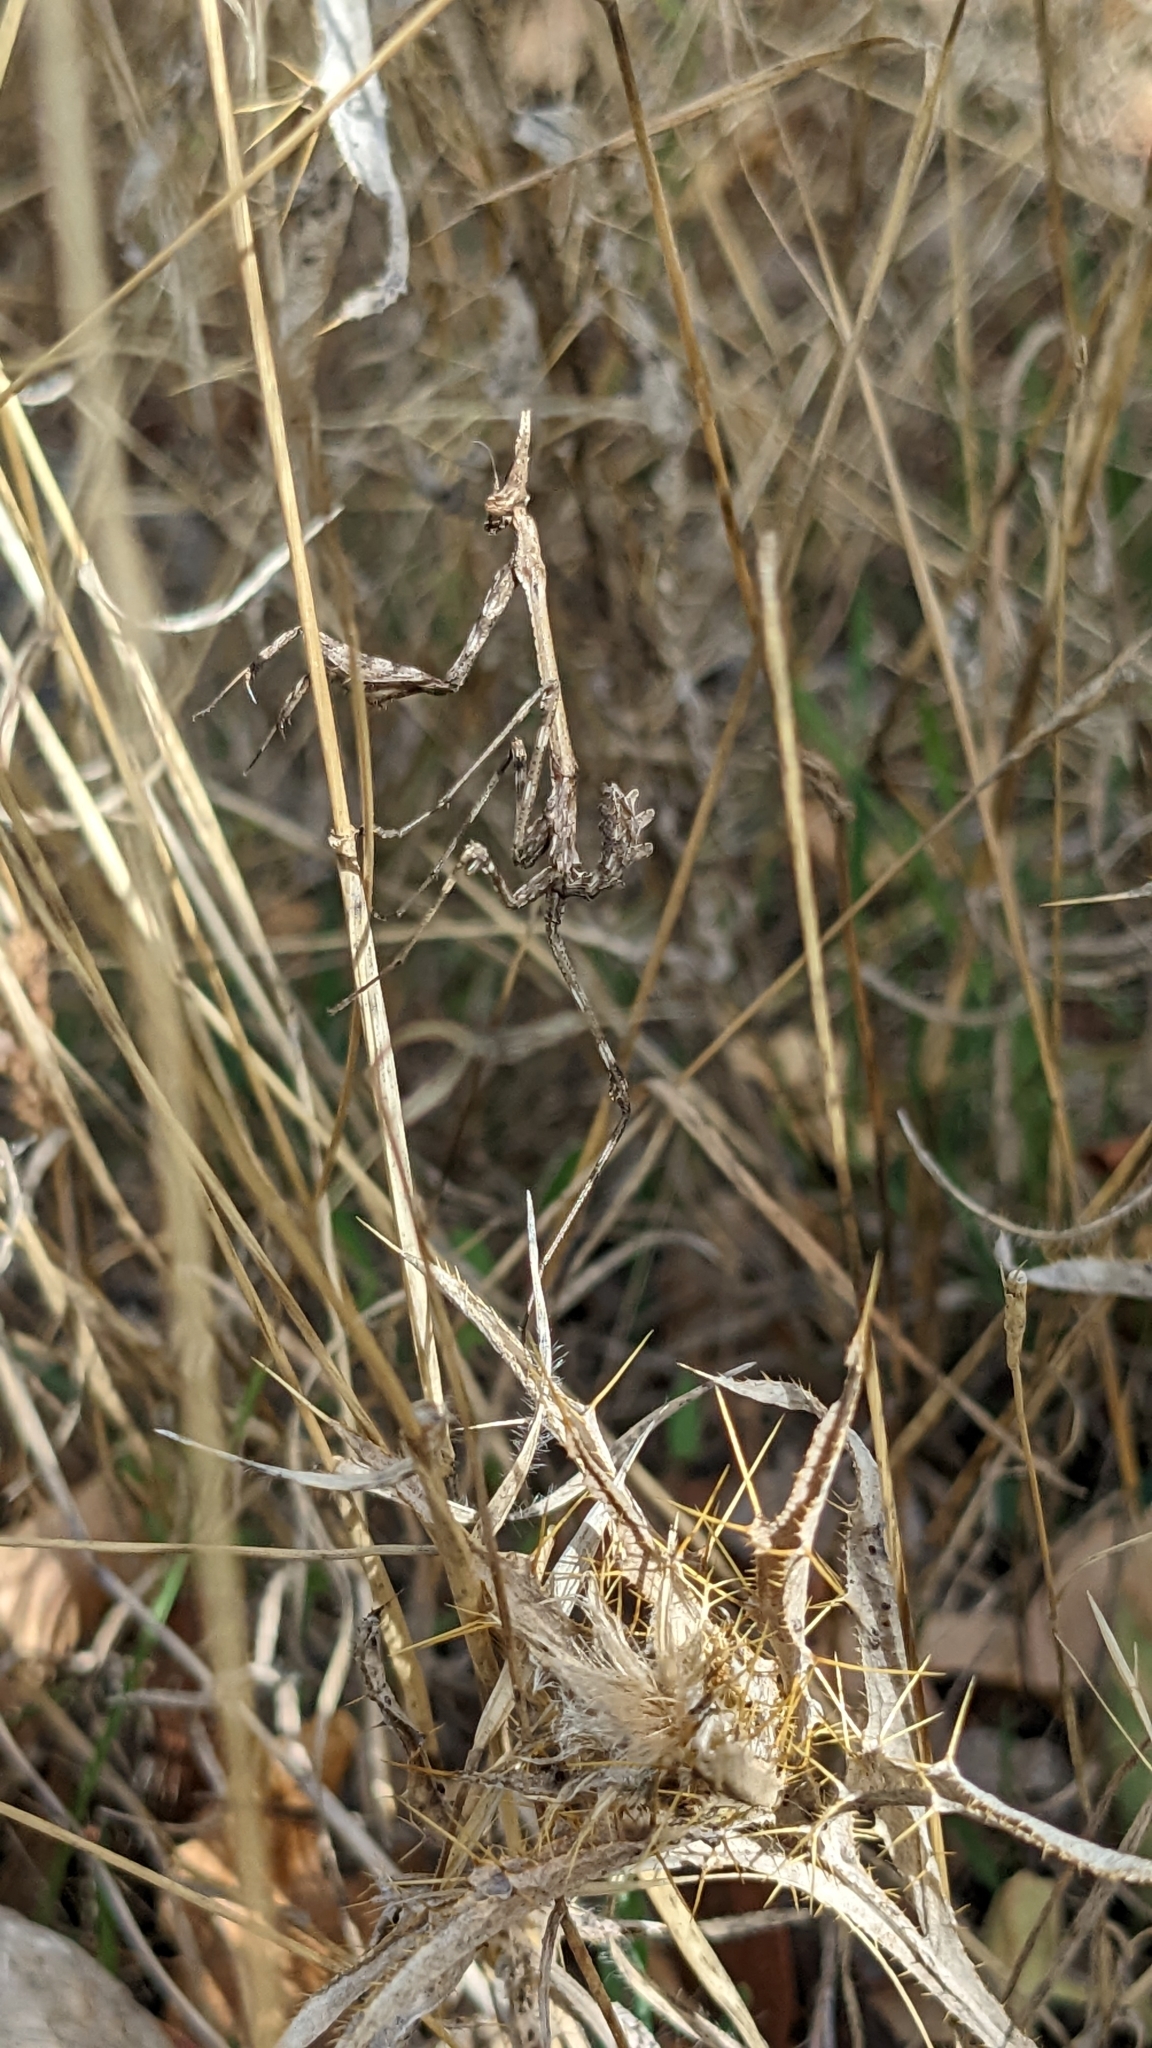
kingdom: Animalia
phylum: Arthropoda
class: Insecta
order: Mantodea
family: Empusidae
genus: Empusa
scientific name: Empusa pennata
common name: Conehead mantis
